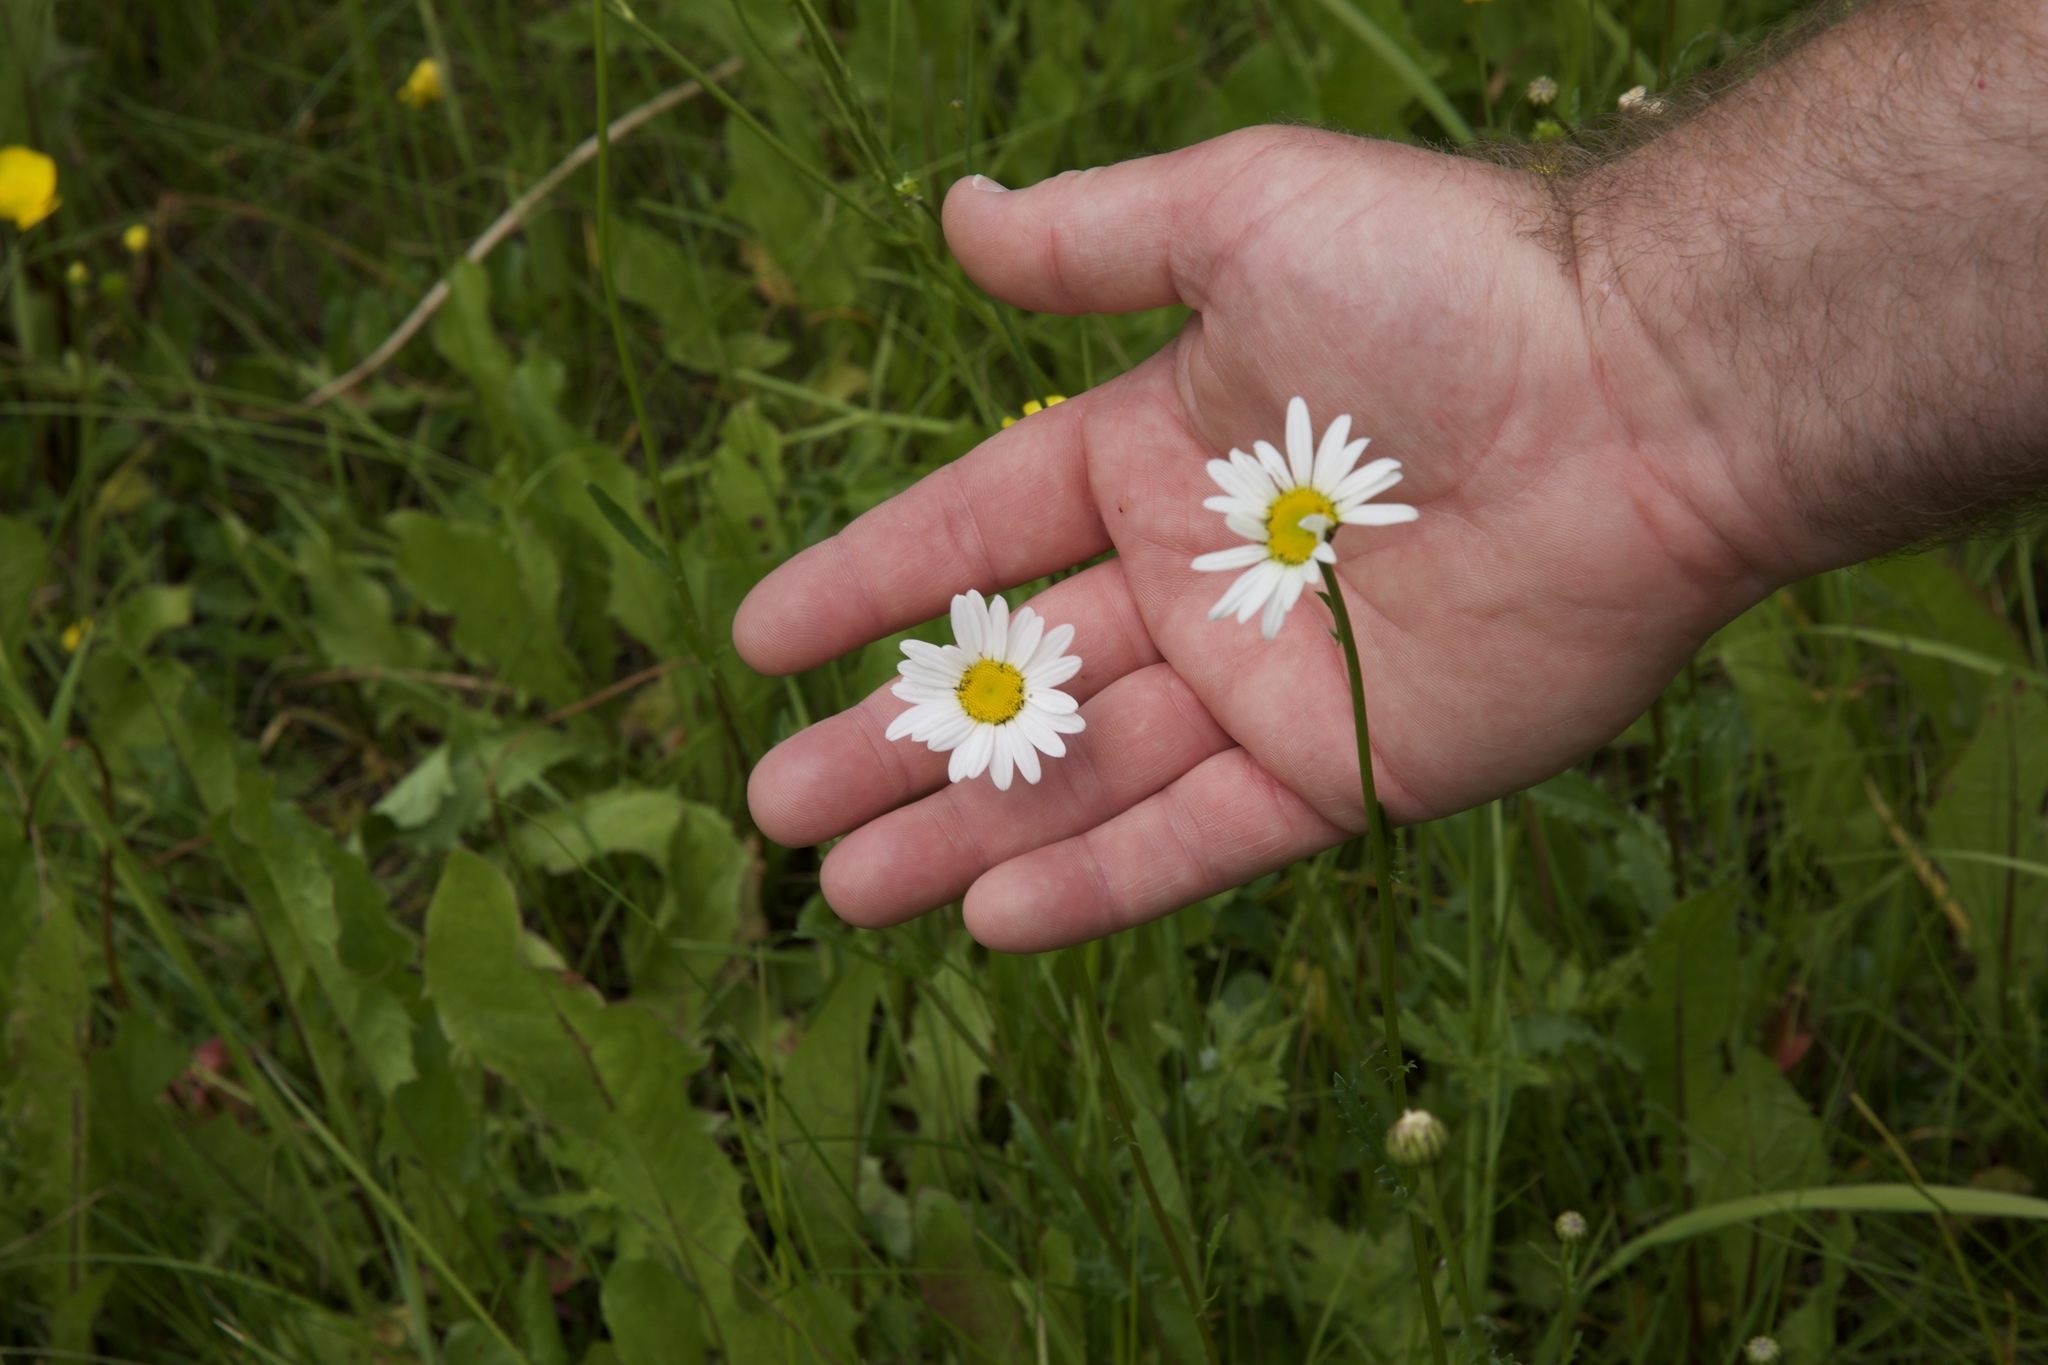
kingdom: Plantae
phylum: Tracheophyta
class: Magnoliopsida
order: Asterales
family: Asteraceae
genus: Leucanthemum
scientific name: Leucanthemum vulgare
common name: Oxeye daisy
